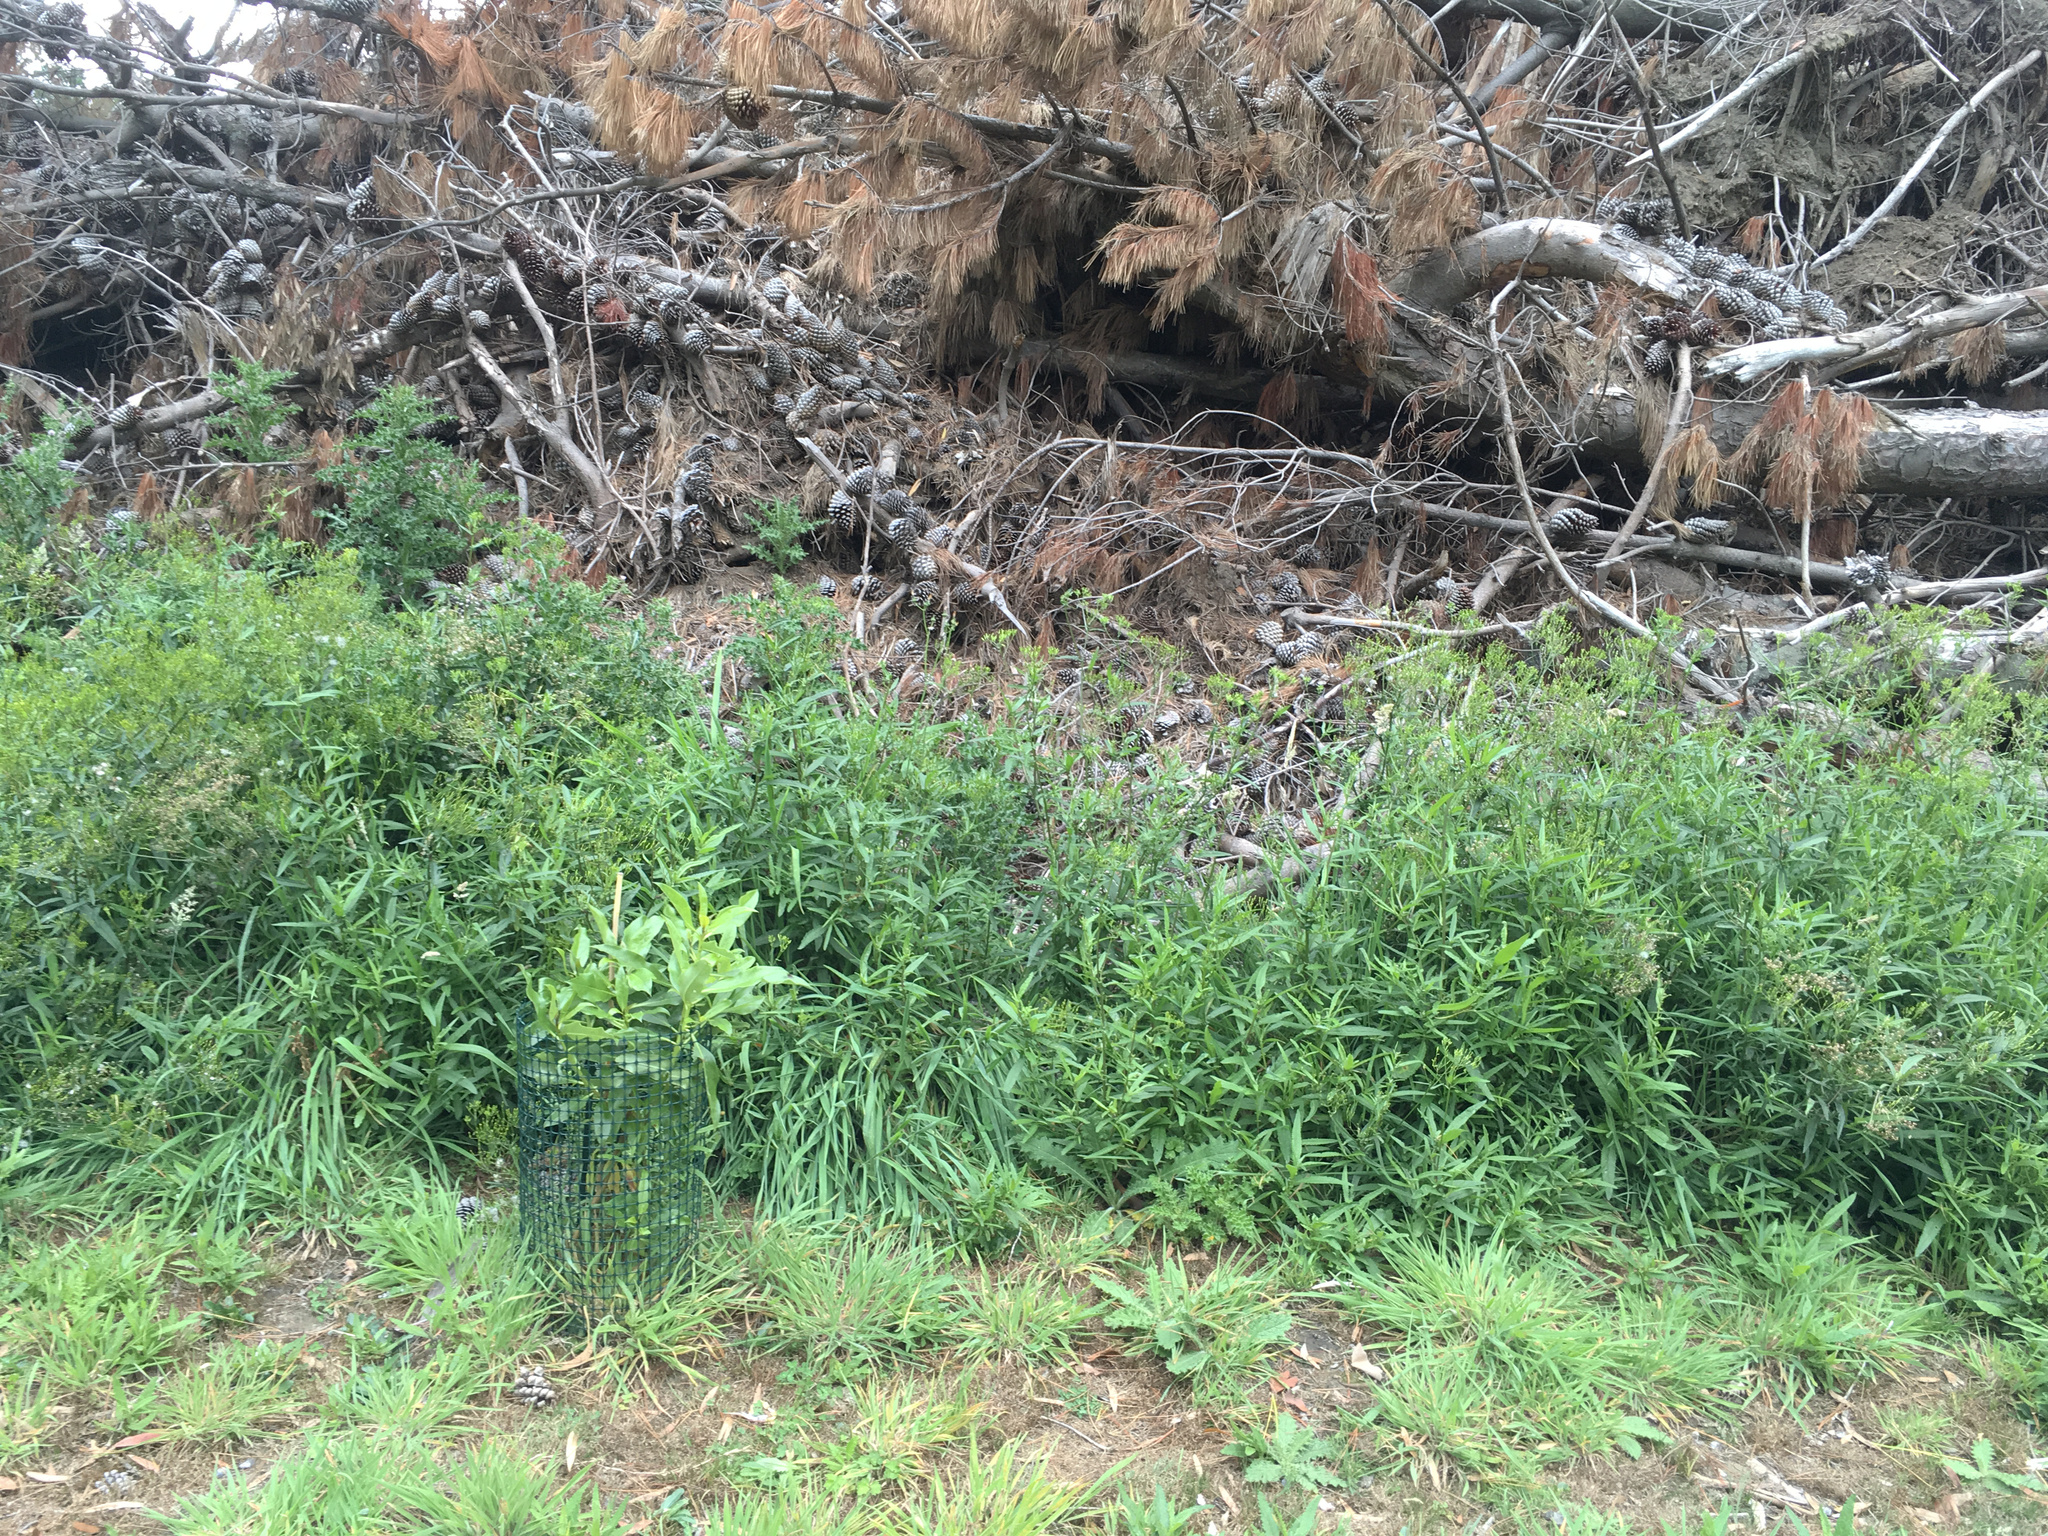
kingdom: Plantae
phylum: Tracheophyta
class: Magnoliopsida
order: Asterales
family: Asteraceae
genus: Senecio
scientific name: Senecio minimus
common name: Toothed fireweed
